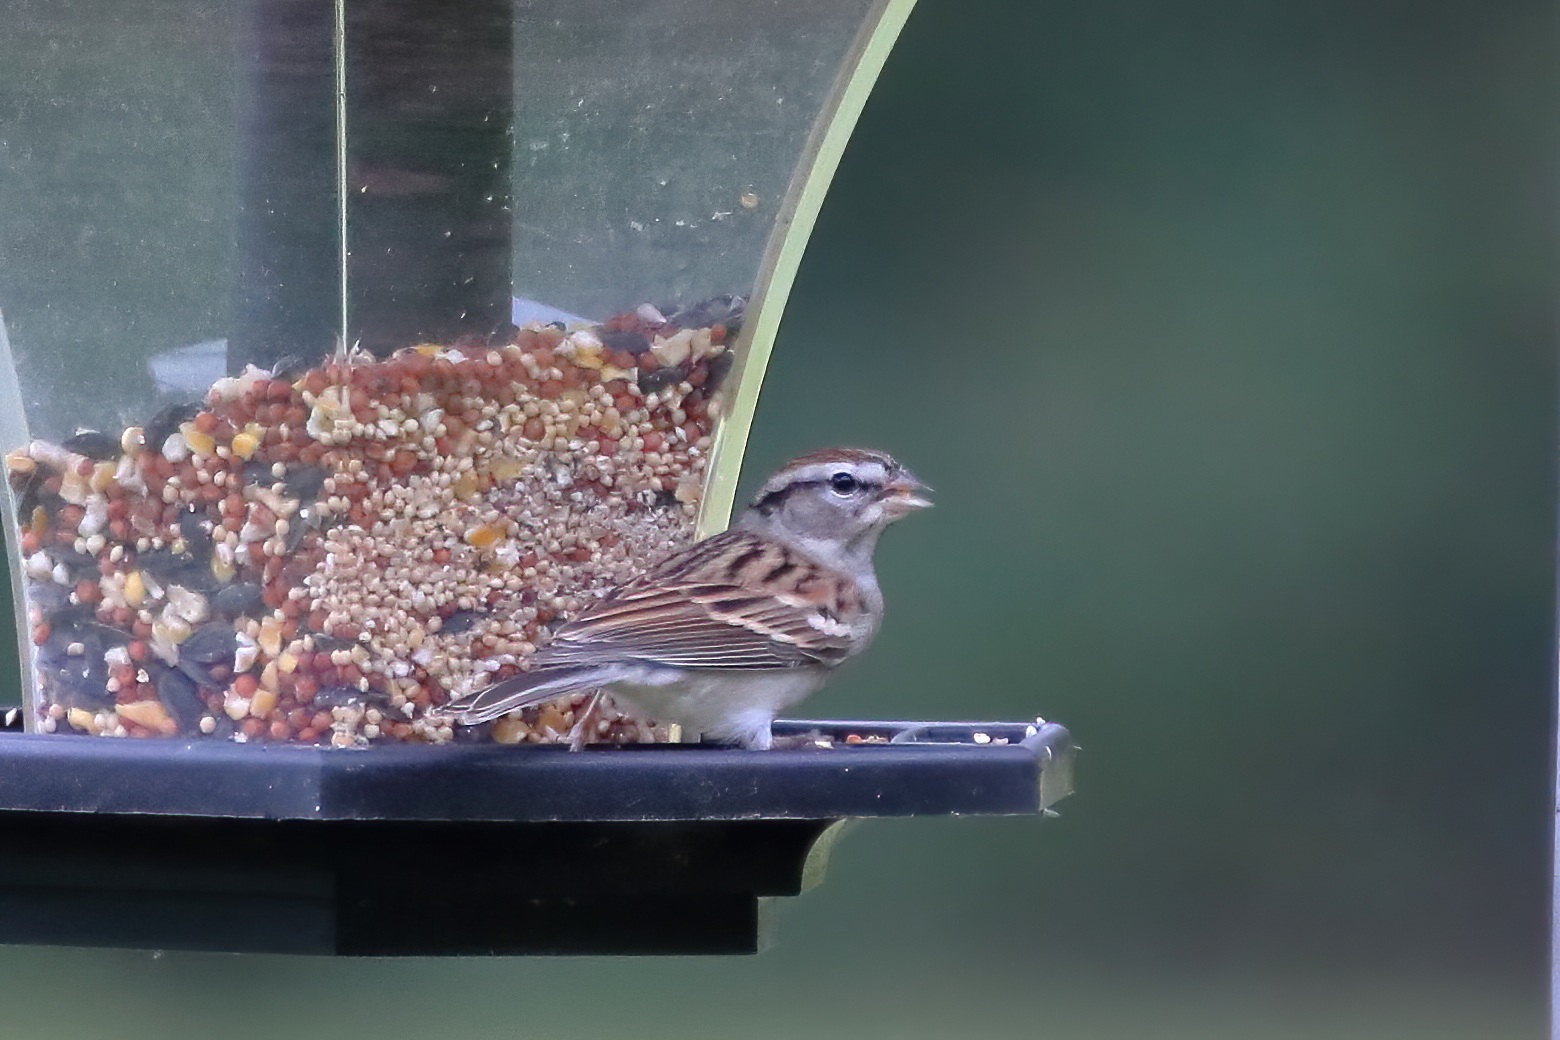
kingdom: Animalia
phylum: Chordata
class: Aves
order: Passeriformes
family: Passerellidae
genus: Spizella
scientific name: Spizella passerina
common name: Chipping sparrow
